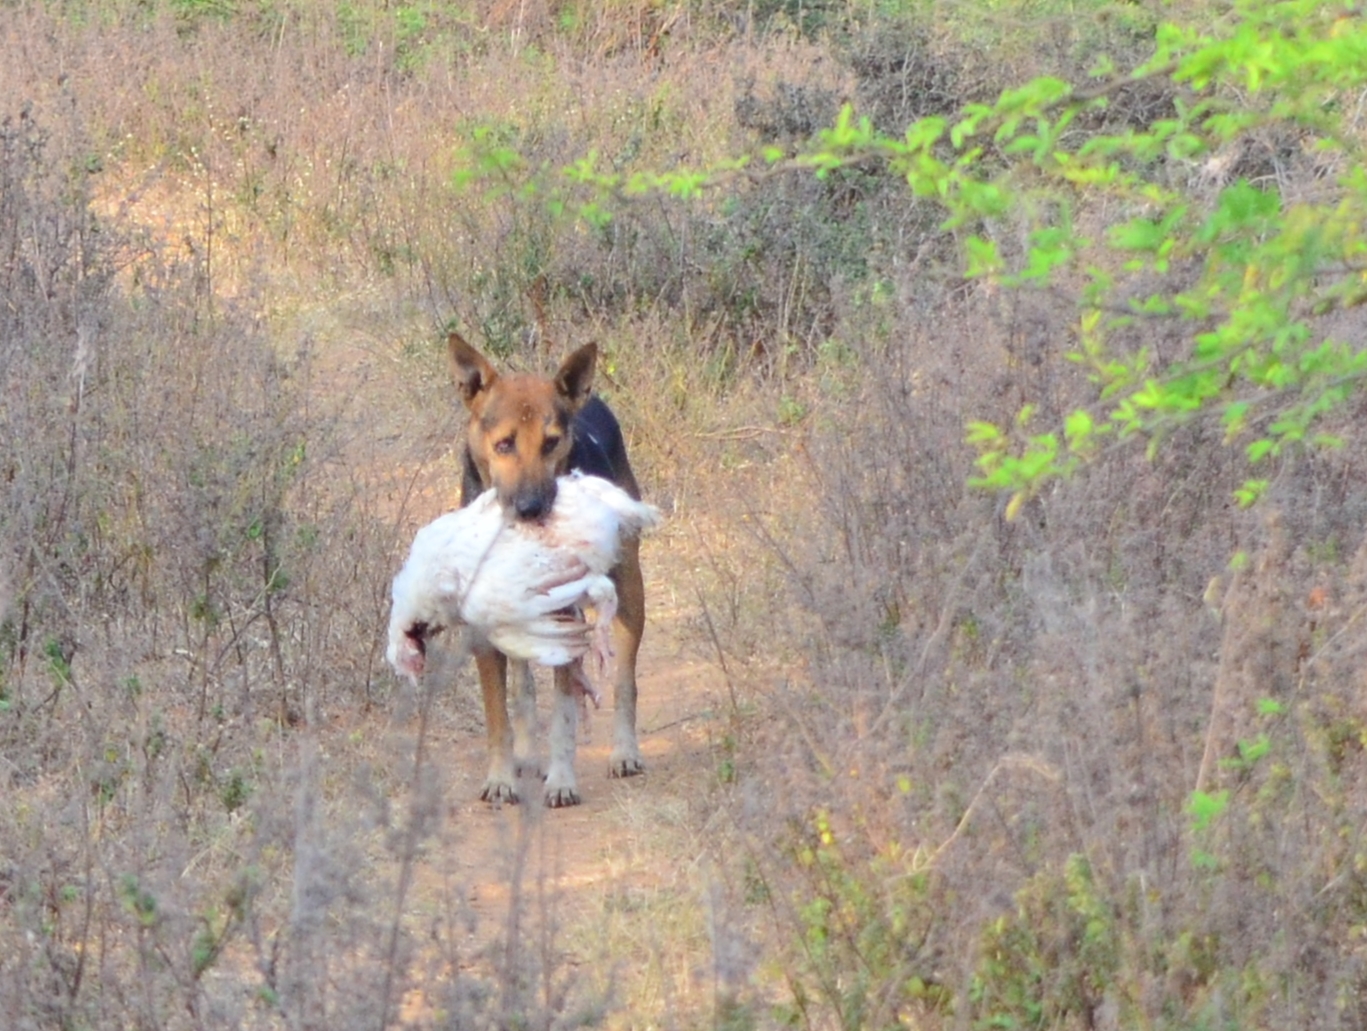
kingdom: Animalia
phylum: Chordata
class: Mammalia
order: Carnivora
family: Canidae
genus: Canis
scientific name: Canis lupus
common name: Gray wolf
